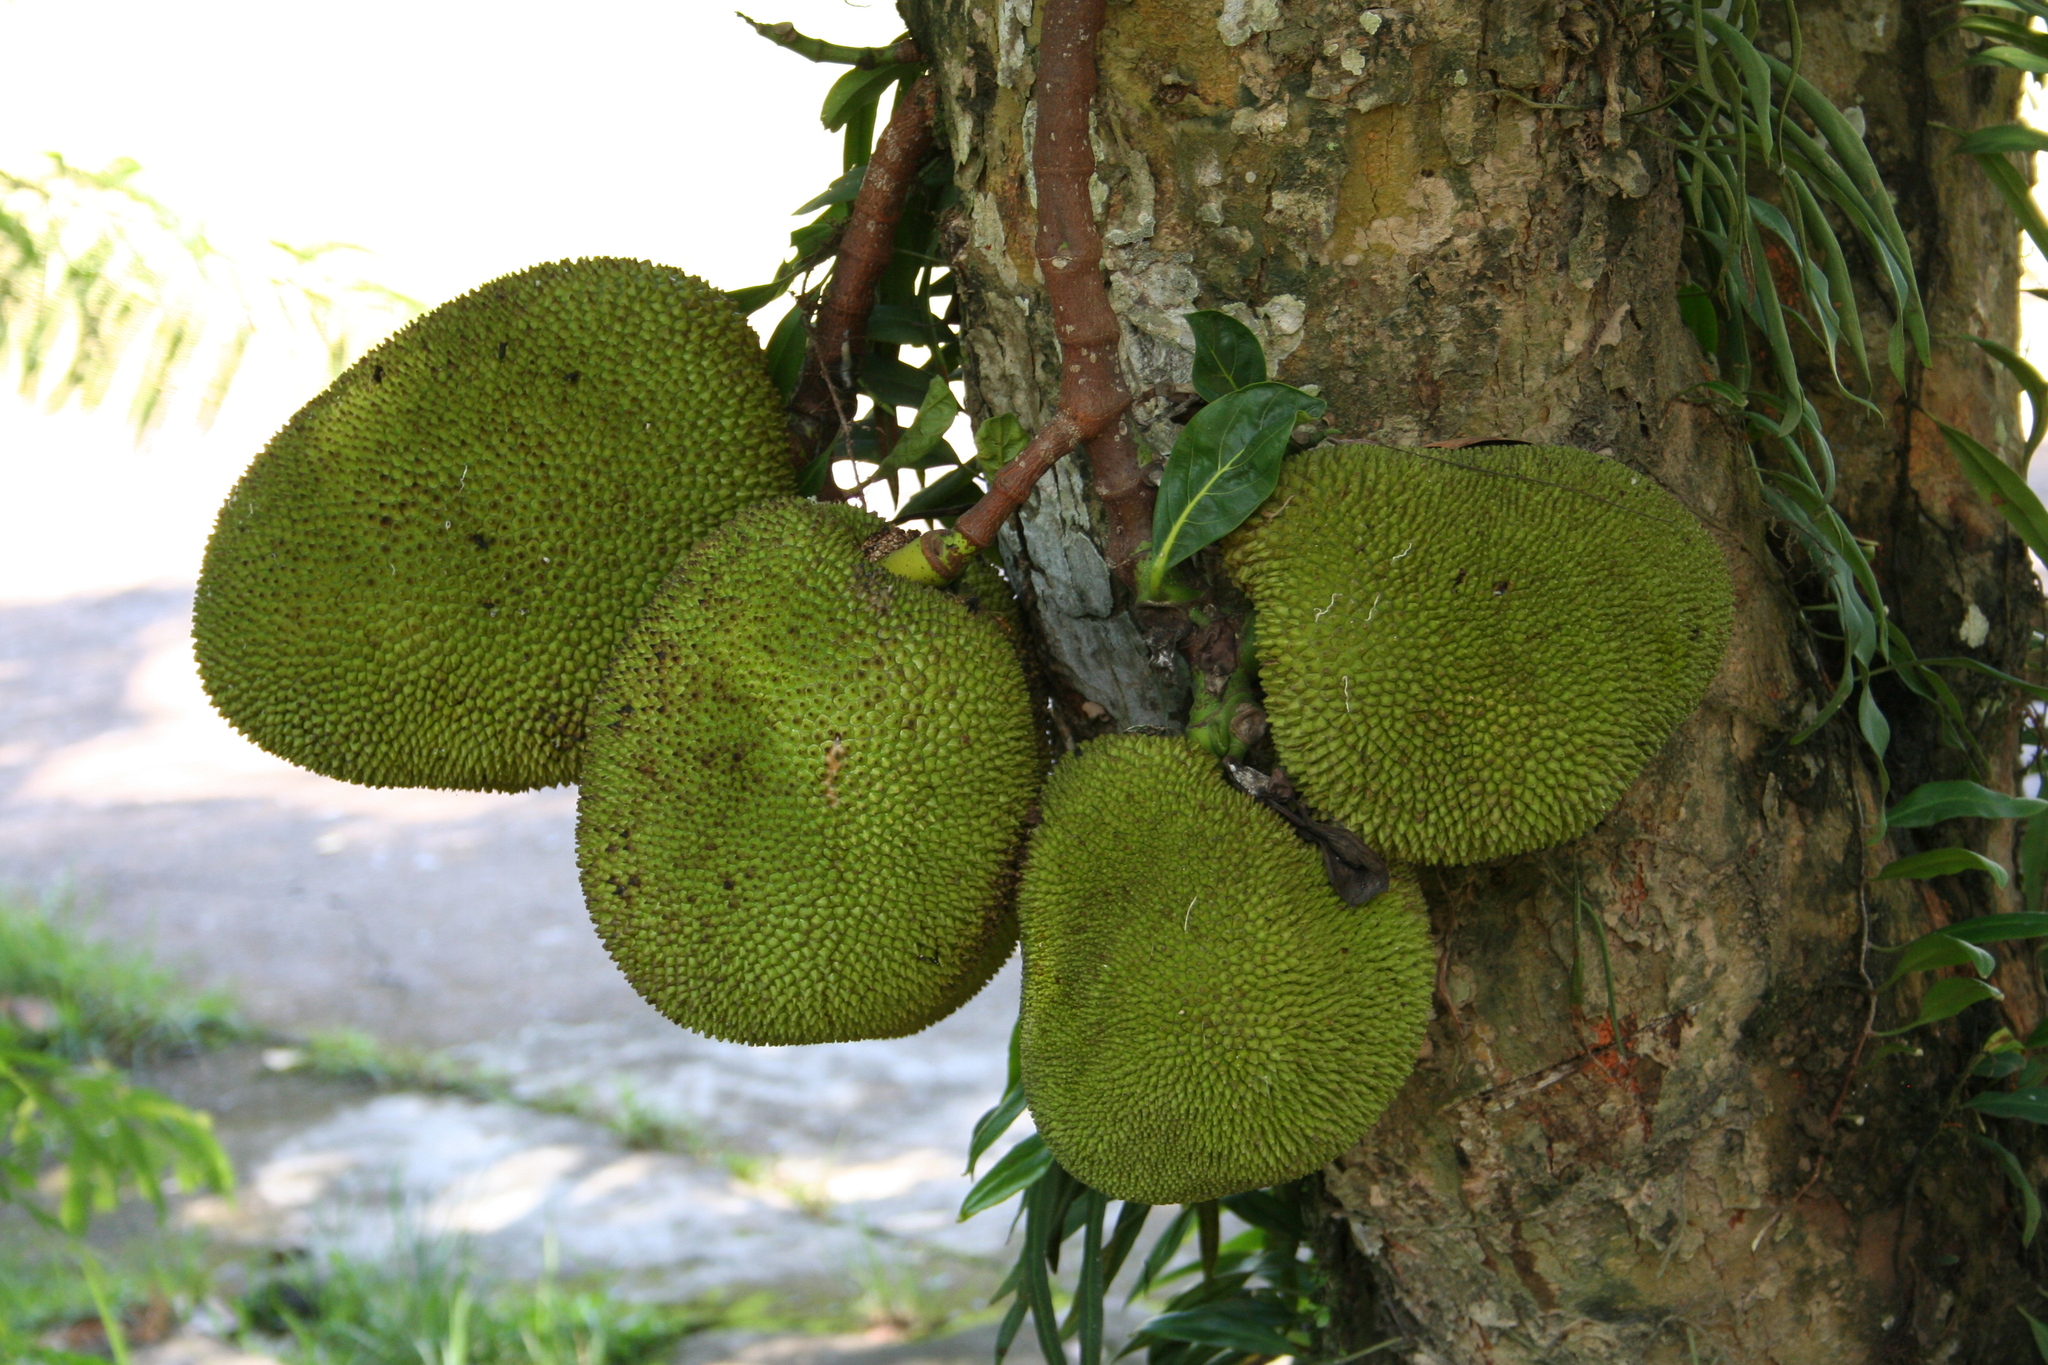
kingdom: Plantae
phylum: Tracheophyta
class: Magnoliopsida
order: Rosales
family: Moraceae
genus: Artocarpus
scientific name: Artocarpus heterophyllus
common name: Jackfruit
